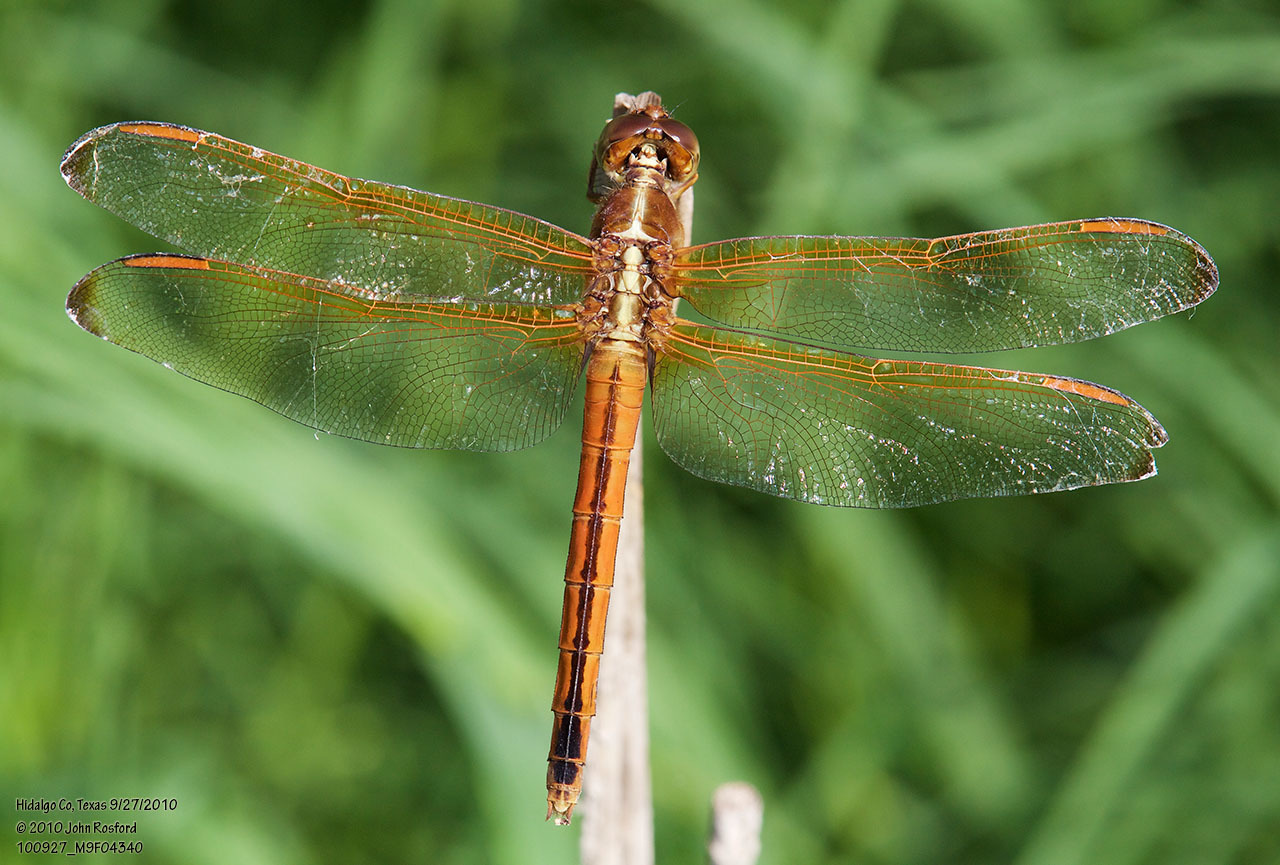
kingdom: Animalia
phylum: Arthropoda
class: Insecta
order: Odonata
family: Libellulidae
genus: Libellula
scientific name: Libellula needhami
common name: Needham's skimmer
